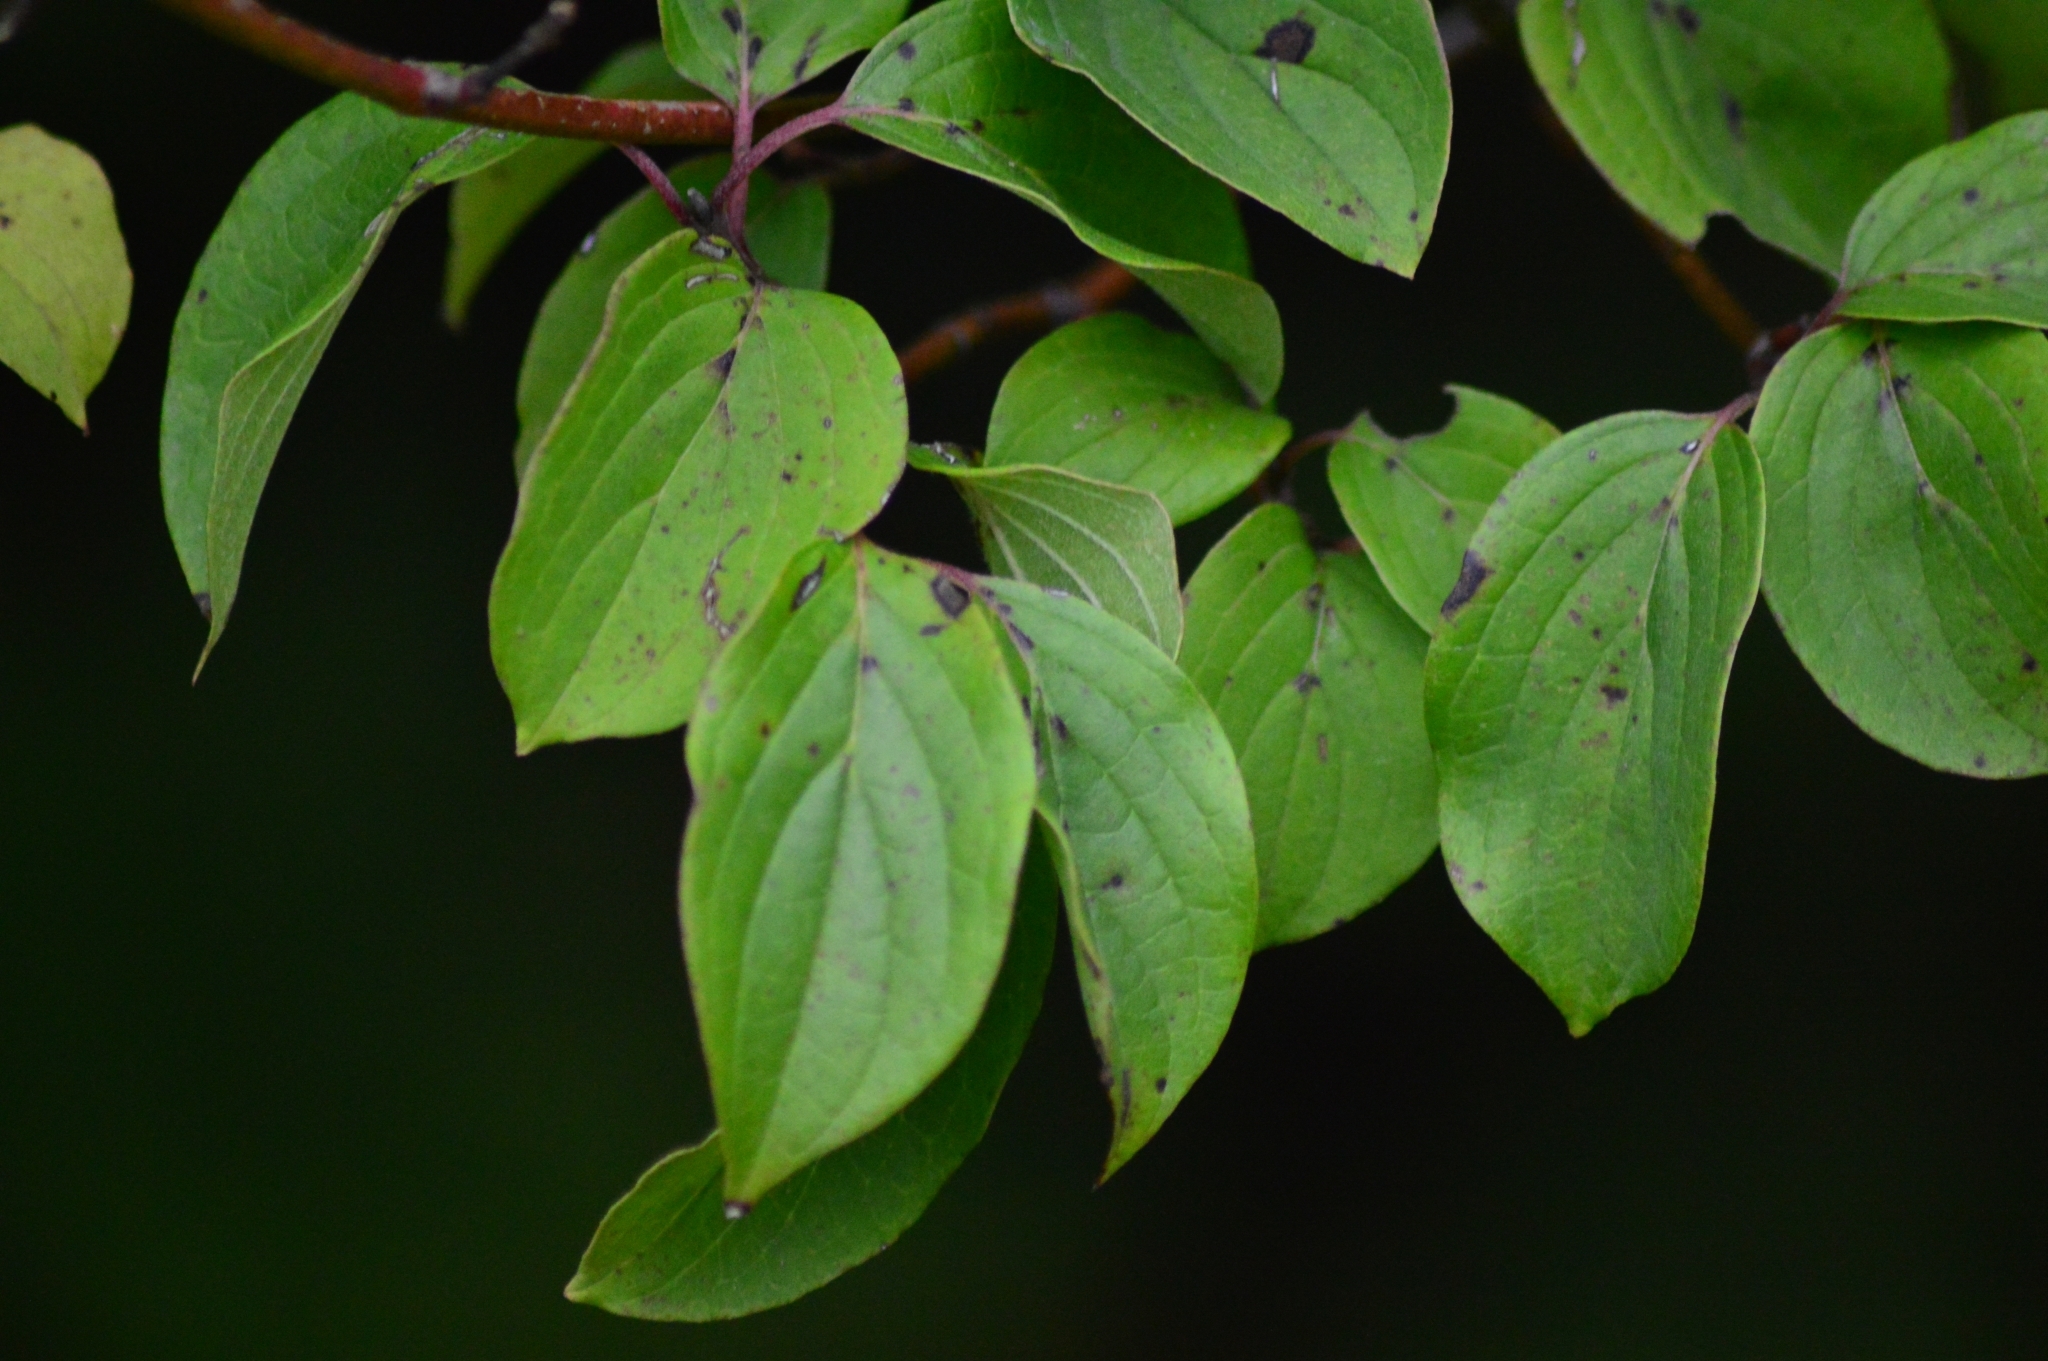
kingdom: Plantae
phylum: Tracheophyta
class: Magnoliopsida
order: Cornales
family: Cornaceae
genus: Cornus
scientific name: Cornus sanguinea
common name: Dogwood
